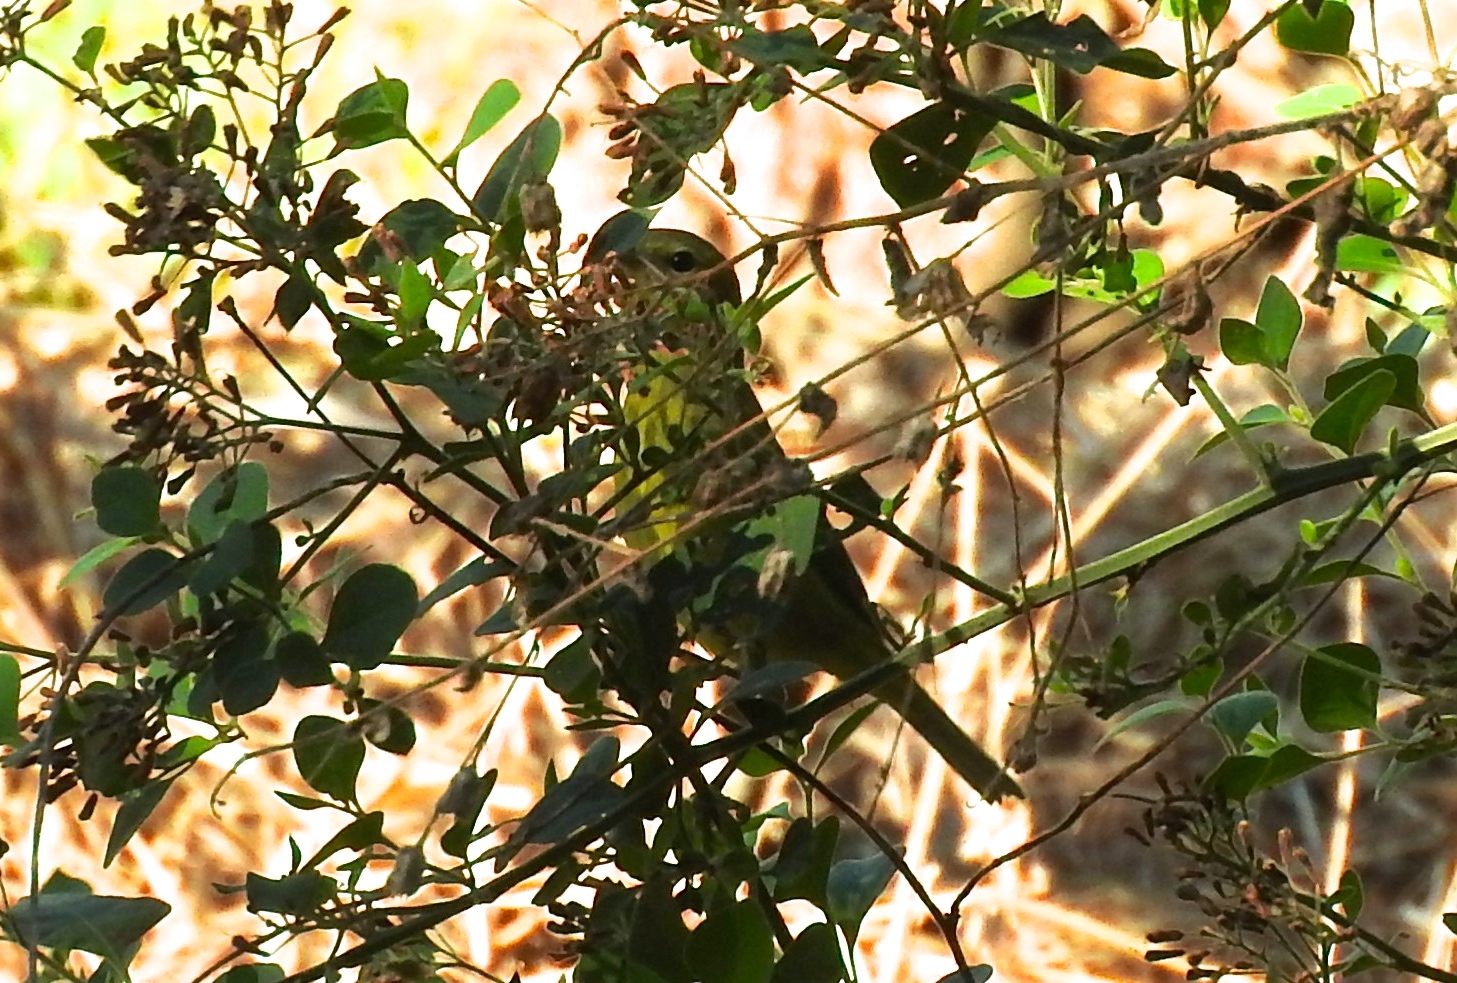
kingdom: Animalia
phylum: Chordata
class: Aves
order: Passeriformes
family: Parulidae
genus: Leiothlypis
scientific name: Leiothlypis celata
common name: Orange-crowned warbler
